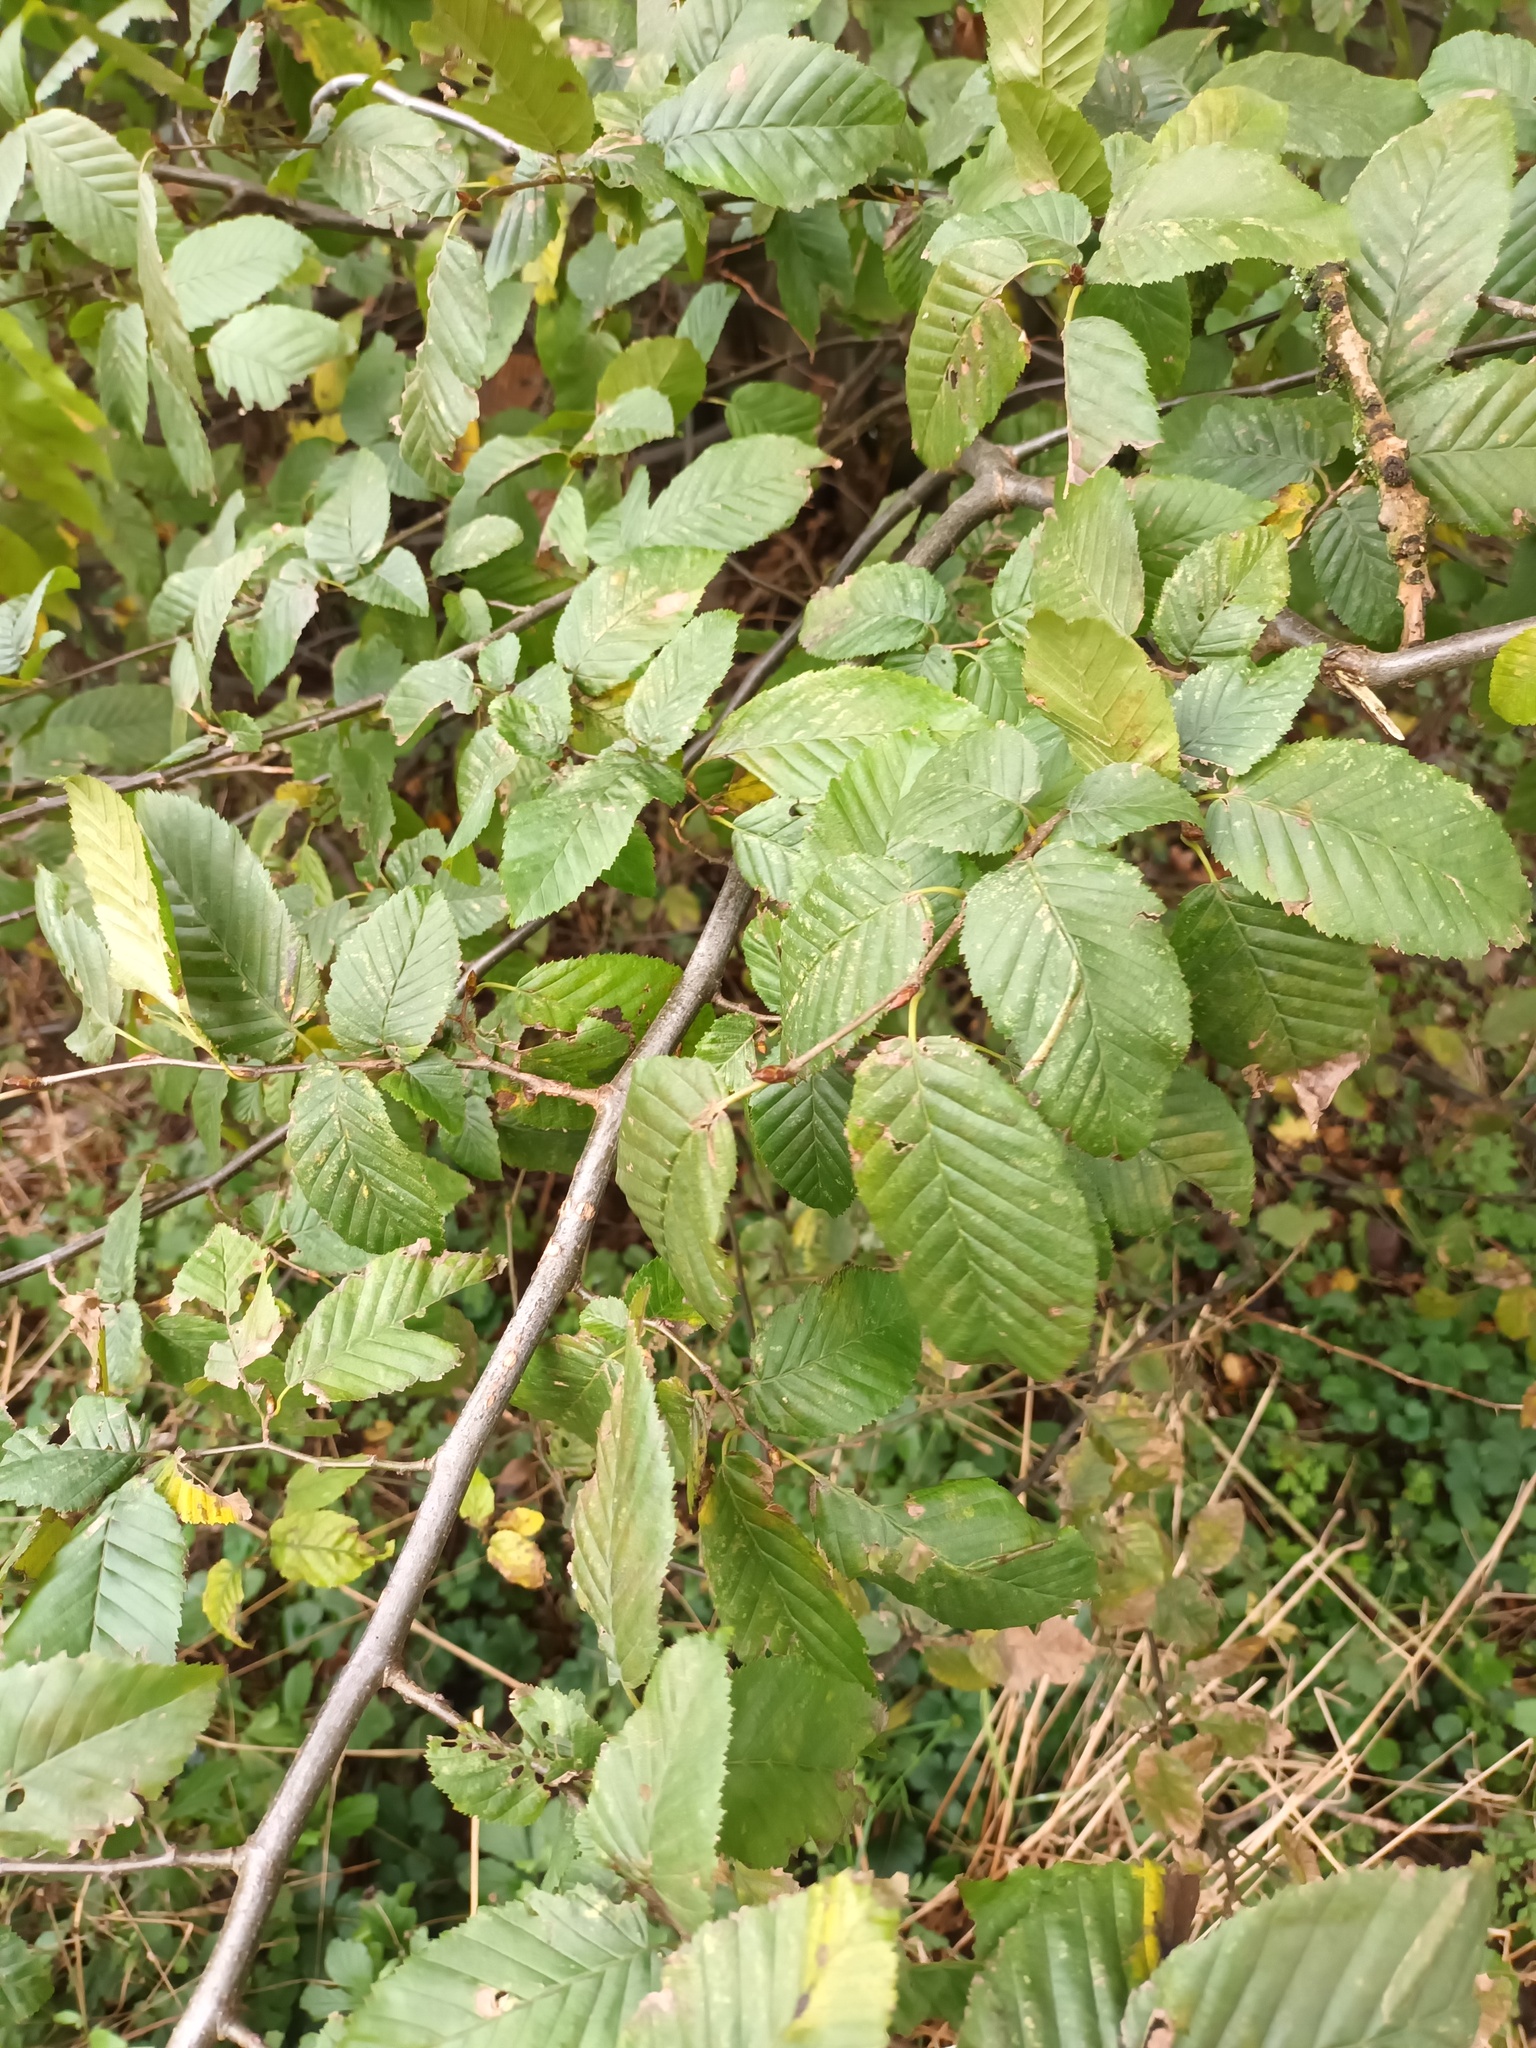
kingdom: Plantae
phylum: Tracheophyta
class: Magnoliopsida
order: Fagales
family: Betulaceae
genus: Carpinus
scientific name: Carpinus betulus
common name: Hornbeam
